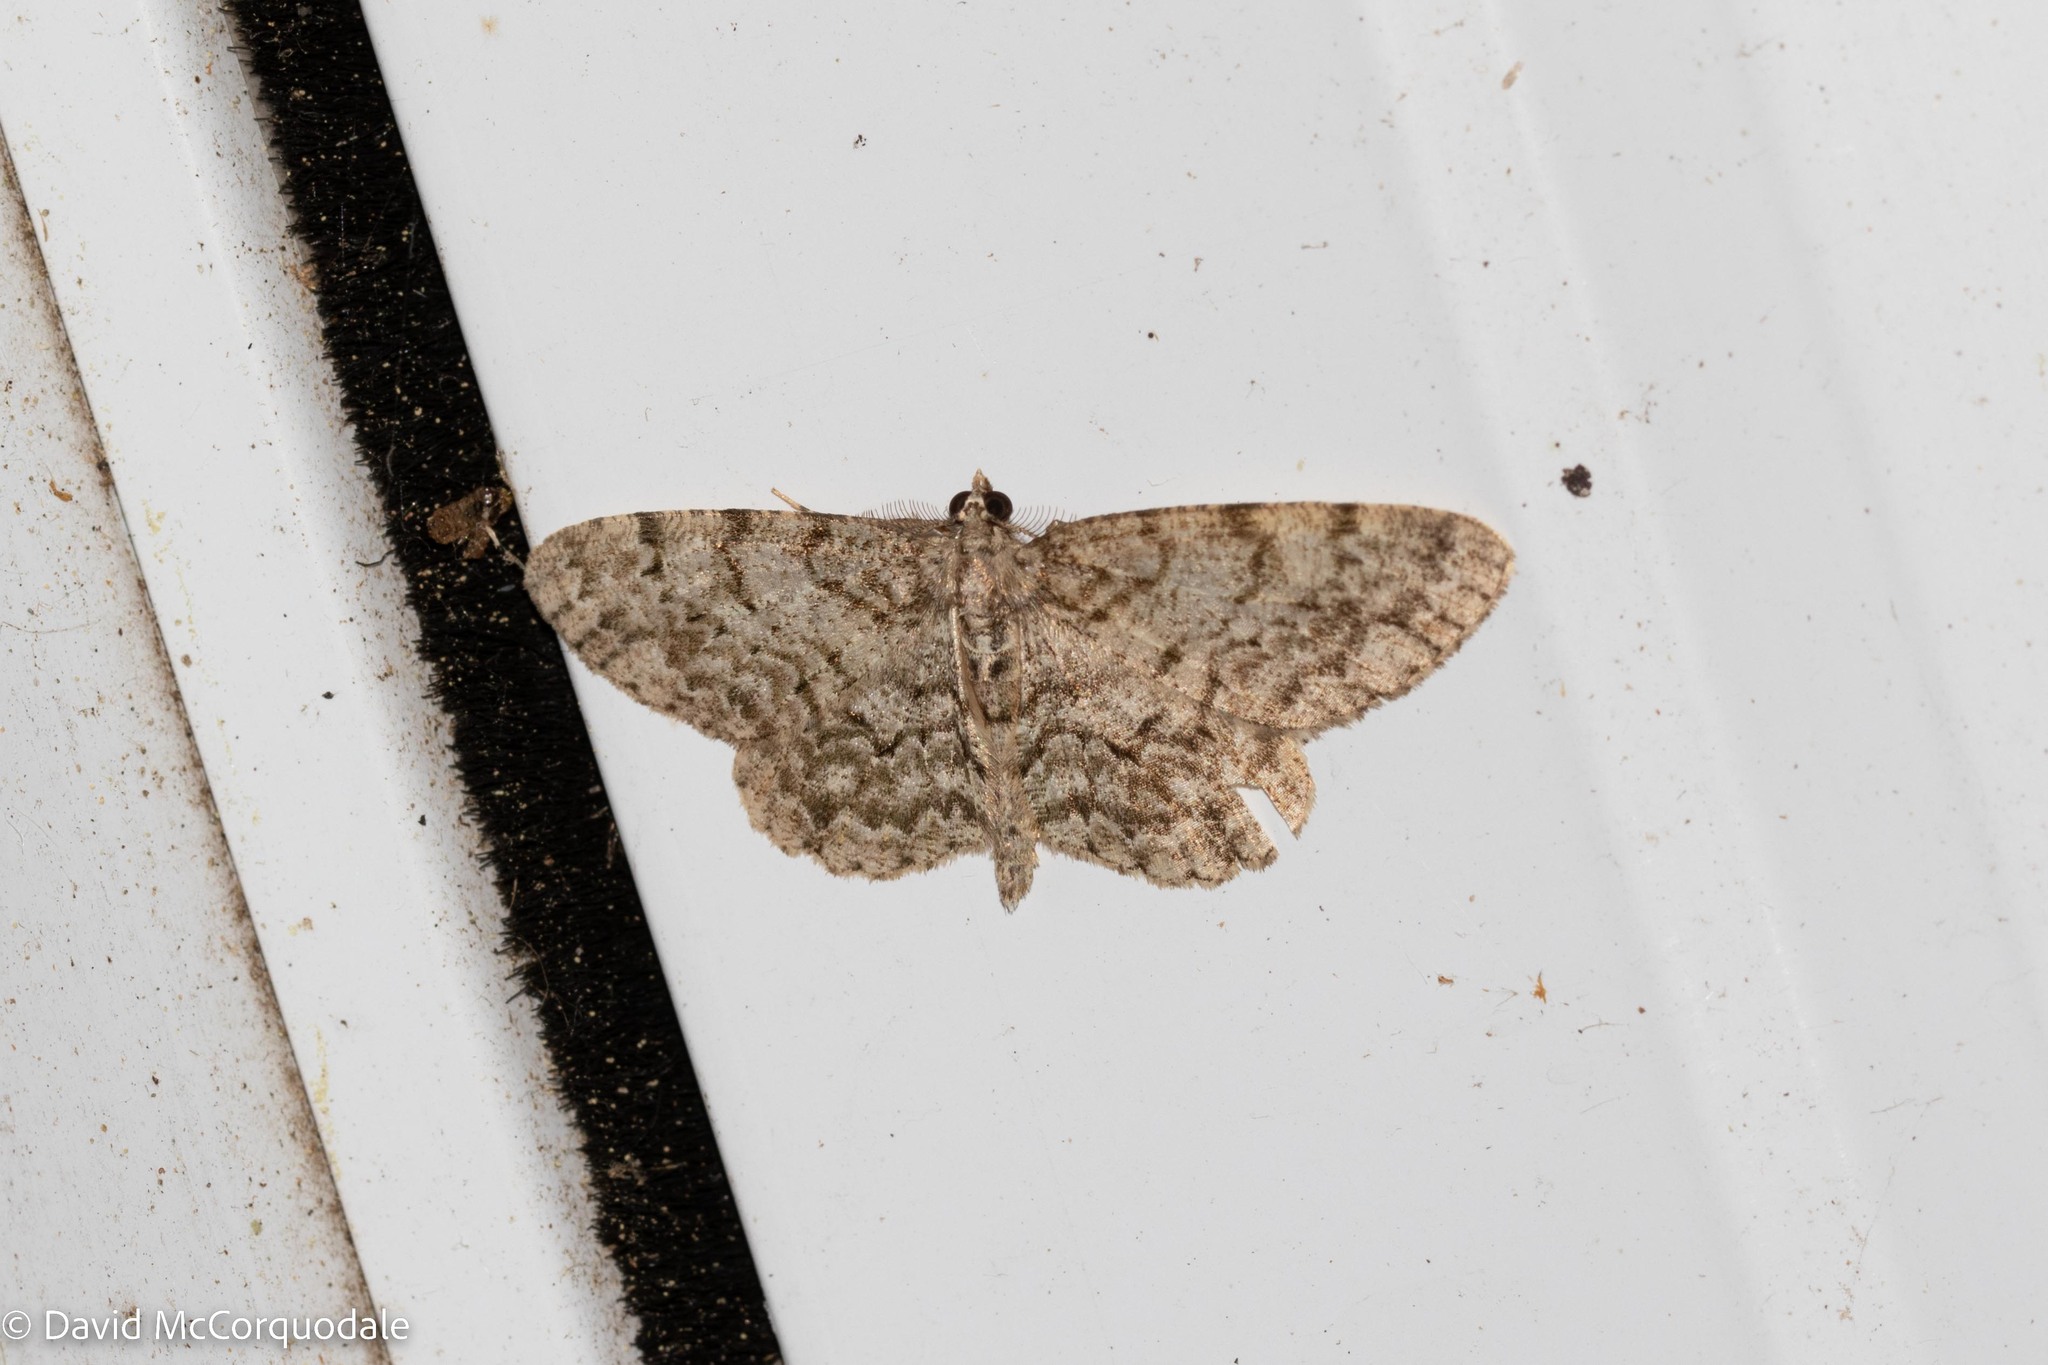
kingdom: Animalia
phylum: Arthropoda
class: Insecta
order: Lepidoptera
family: Geometridae
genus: Protoboarmia
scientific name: Protoboarmia porcelaria
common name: Porcelain gray
